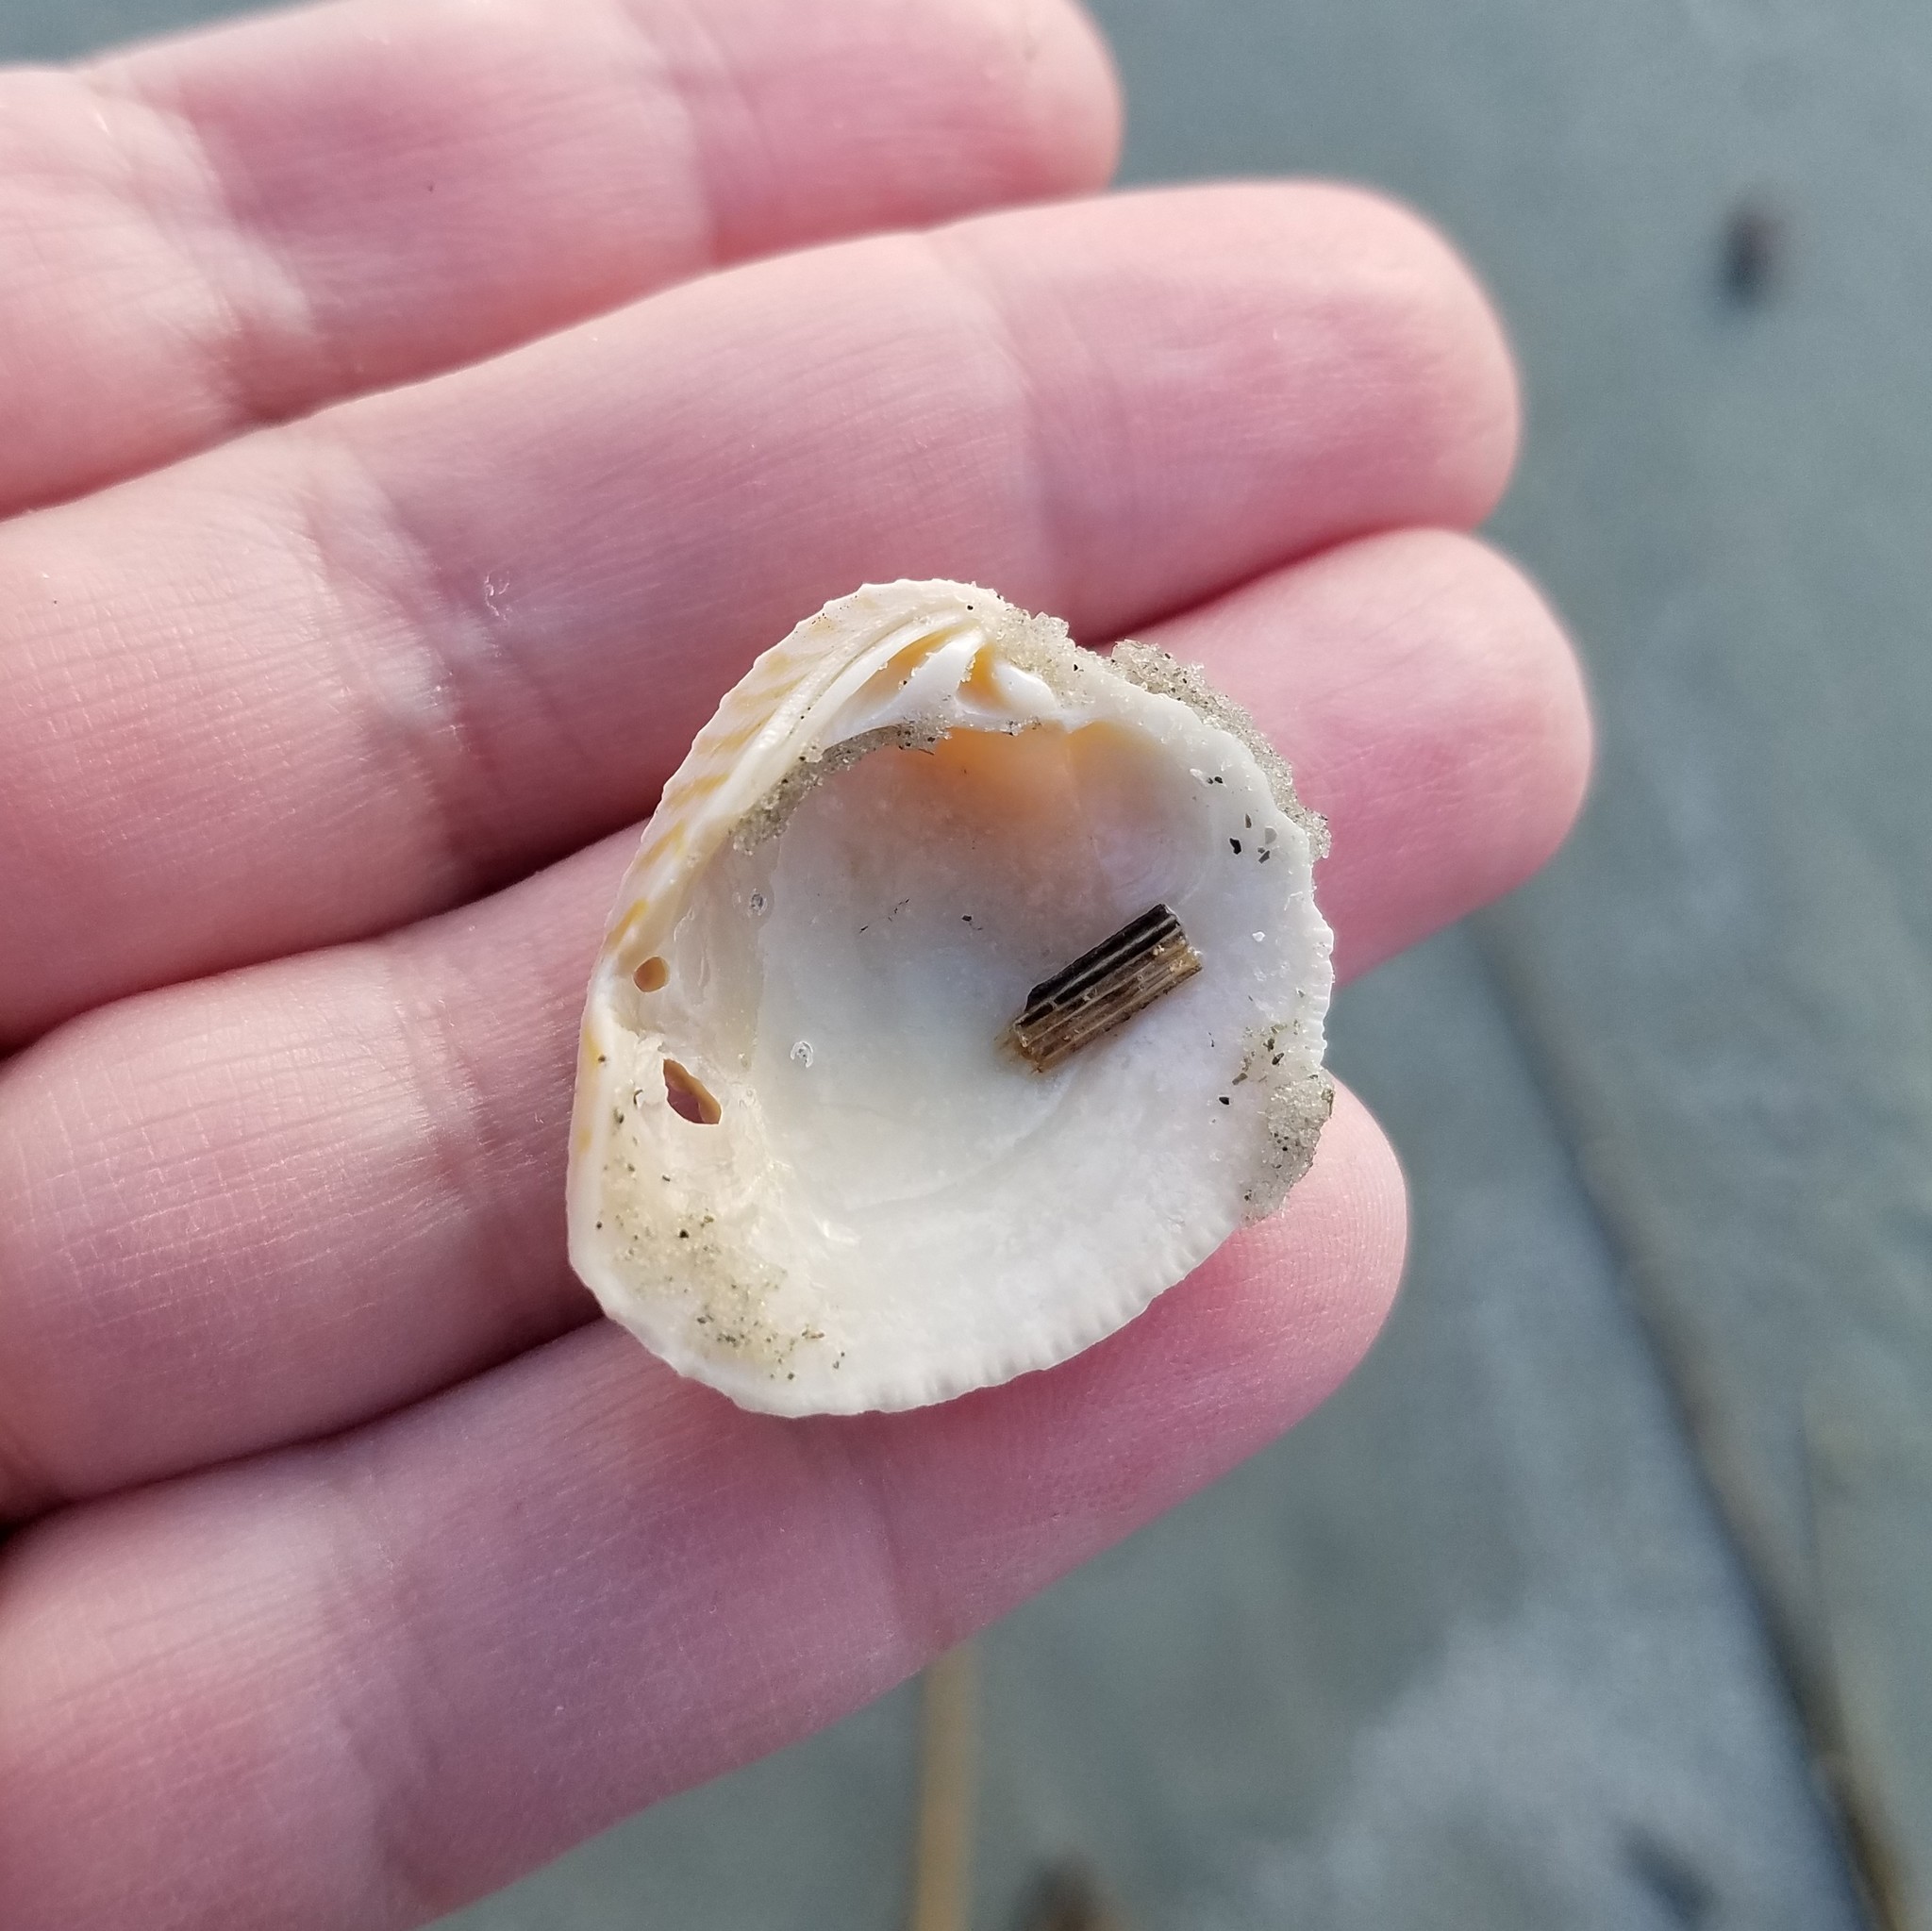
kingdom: Animalia
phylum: Mollusca
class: Bivalvia
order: Venerida
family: Veneridae
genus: Chione
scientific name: Chione elevata
